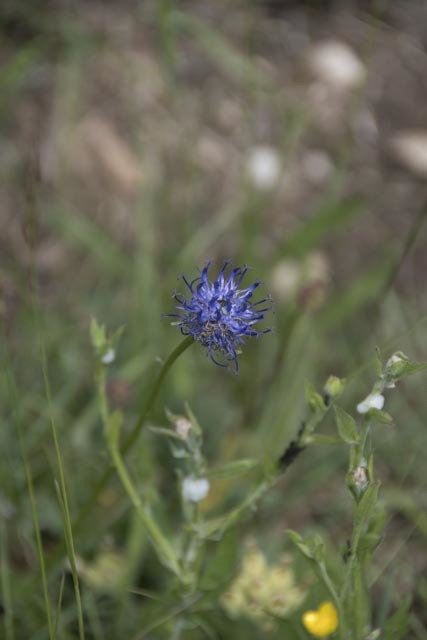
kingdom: Plantae
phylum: Tracheophyta
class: Magnoliopsida
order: Asterales
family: Campanulaceae
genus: Phyteuma
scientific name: Phyteuma orbiculare
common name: Round-headed rampion
